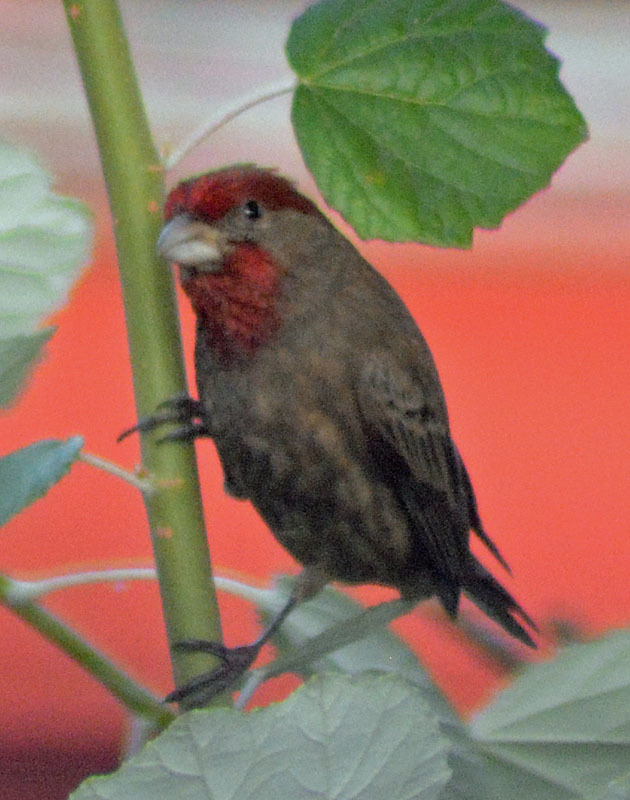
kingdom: Animalia
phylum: Chordata
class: Aves
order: Passeriformes
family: Fringillidae
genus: Haemorhous
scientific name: Haemorhous mexicanus
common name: House finch
